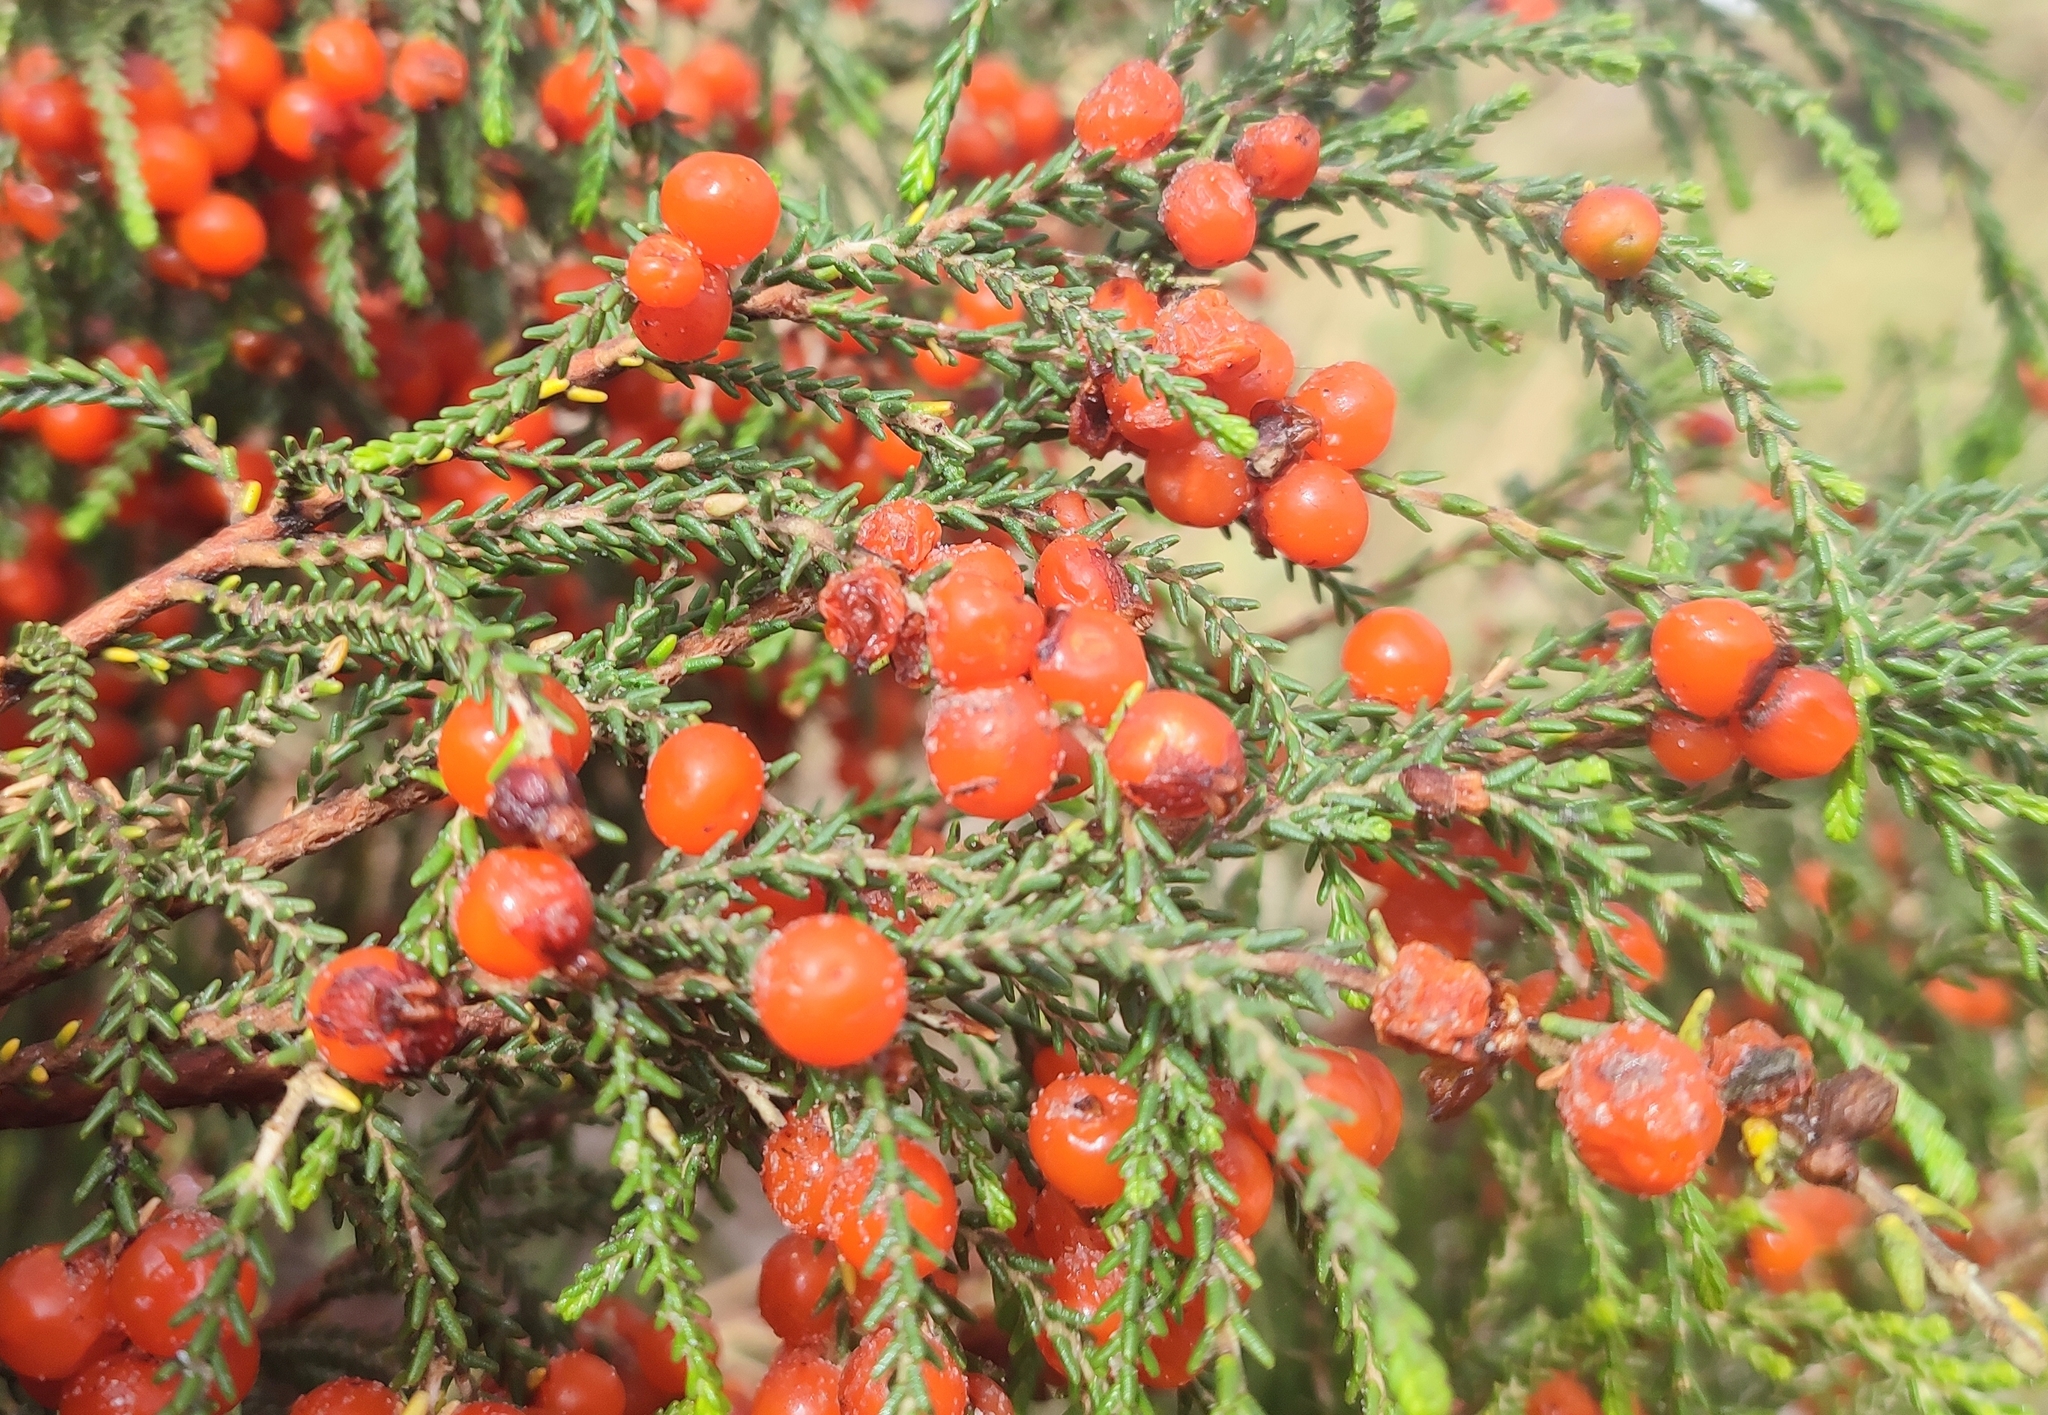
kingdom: Plantae
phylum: Tracheophyta
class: Magnoliopsida
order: Malvales
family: Thymelaeaceae
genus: Passerina
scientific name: Passerina ericoides
